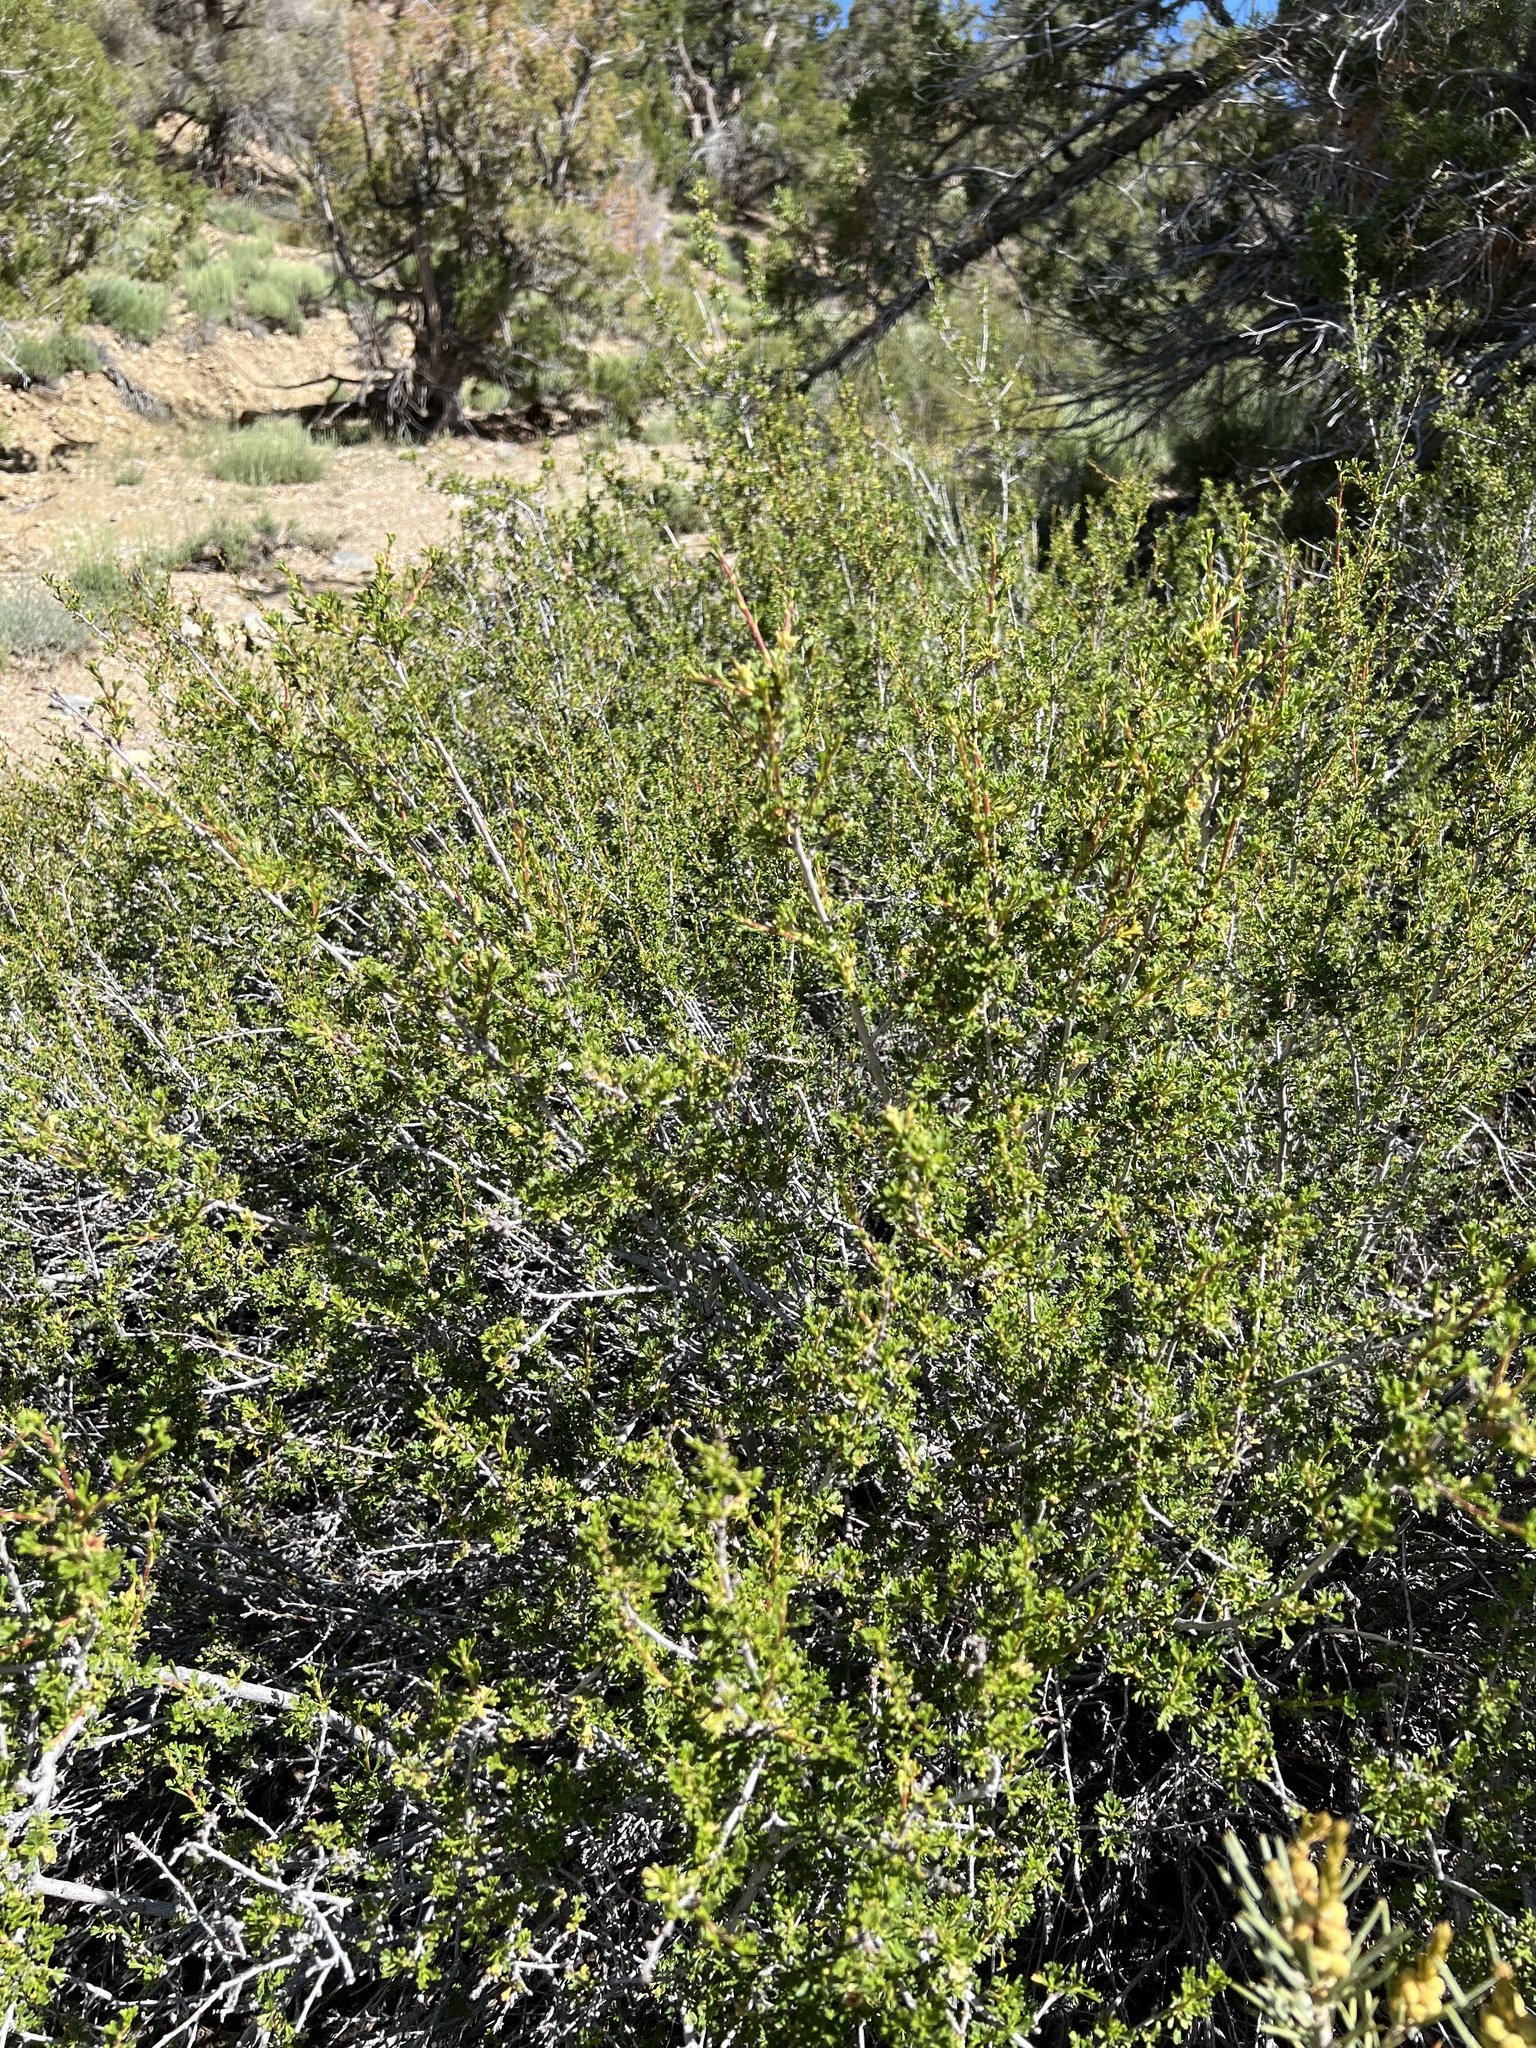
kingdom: Plantae
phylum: Tracheophyta
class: Magnoliopsida
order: Rosales
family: Rosaceae
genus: Purshia
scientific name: Purshia glandulosa
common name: Desert bitterbrush
